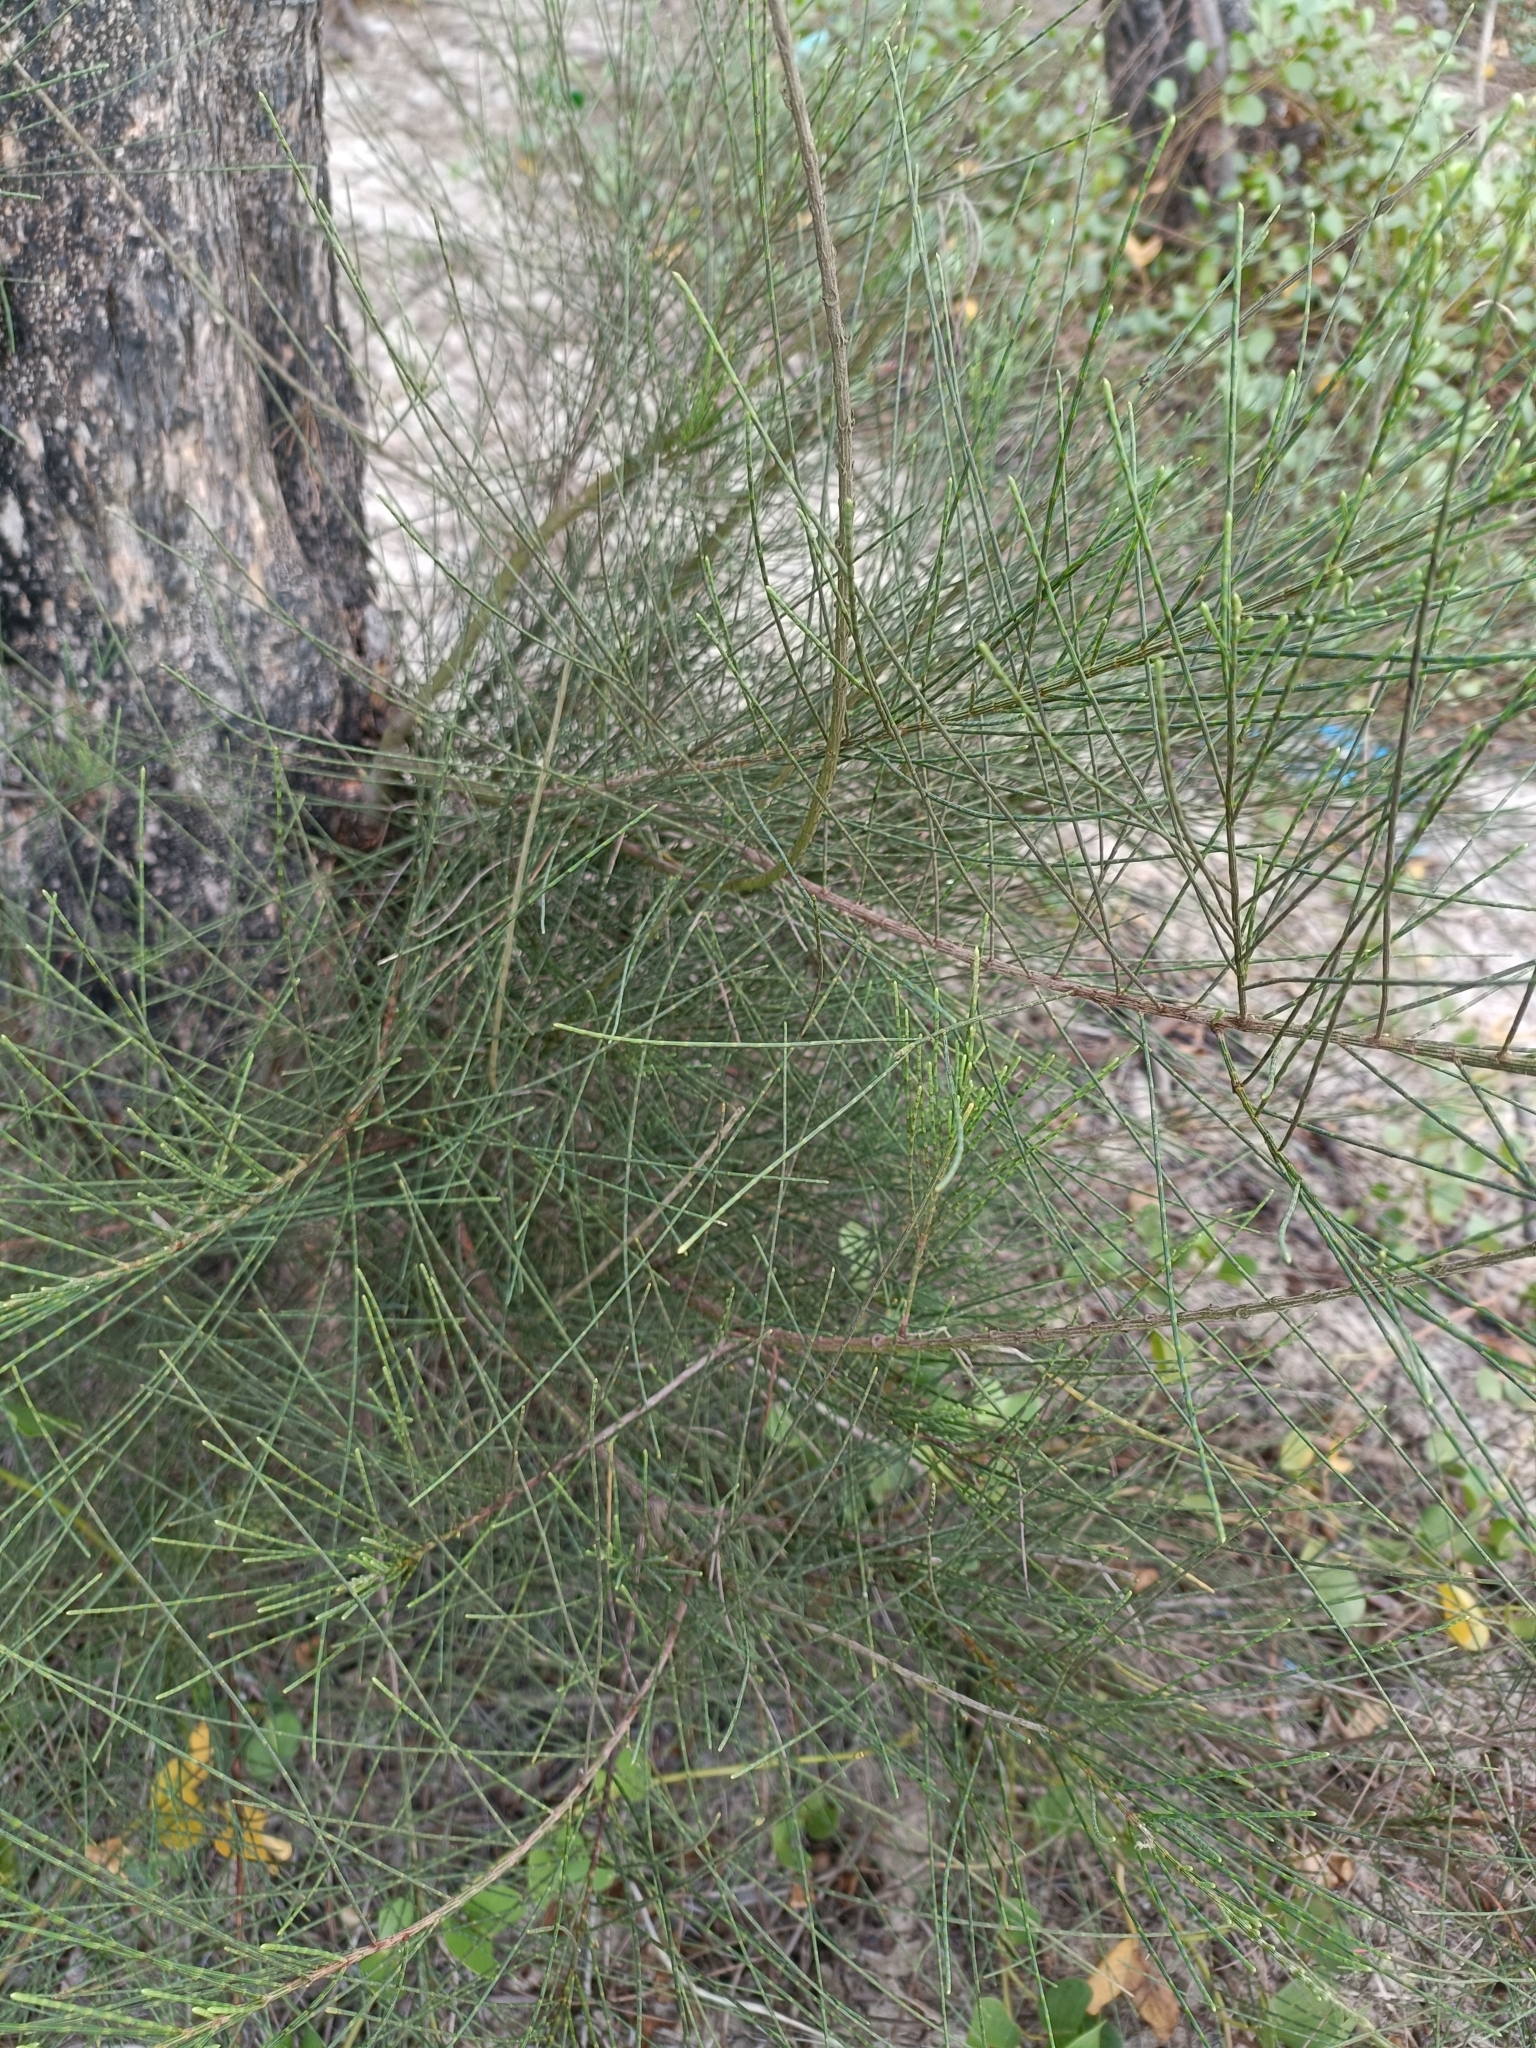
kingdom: Plantae
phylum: Tracheophyta
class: Magnoliopsida
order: Fagales
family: Casuarinaceae
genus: Casuarina
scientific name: Casuarina equisetifolia
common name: Beach sheoak
